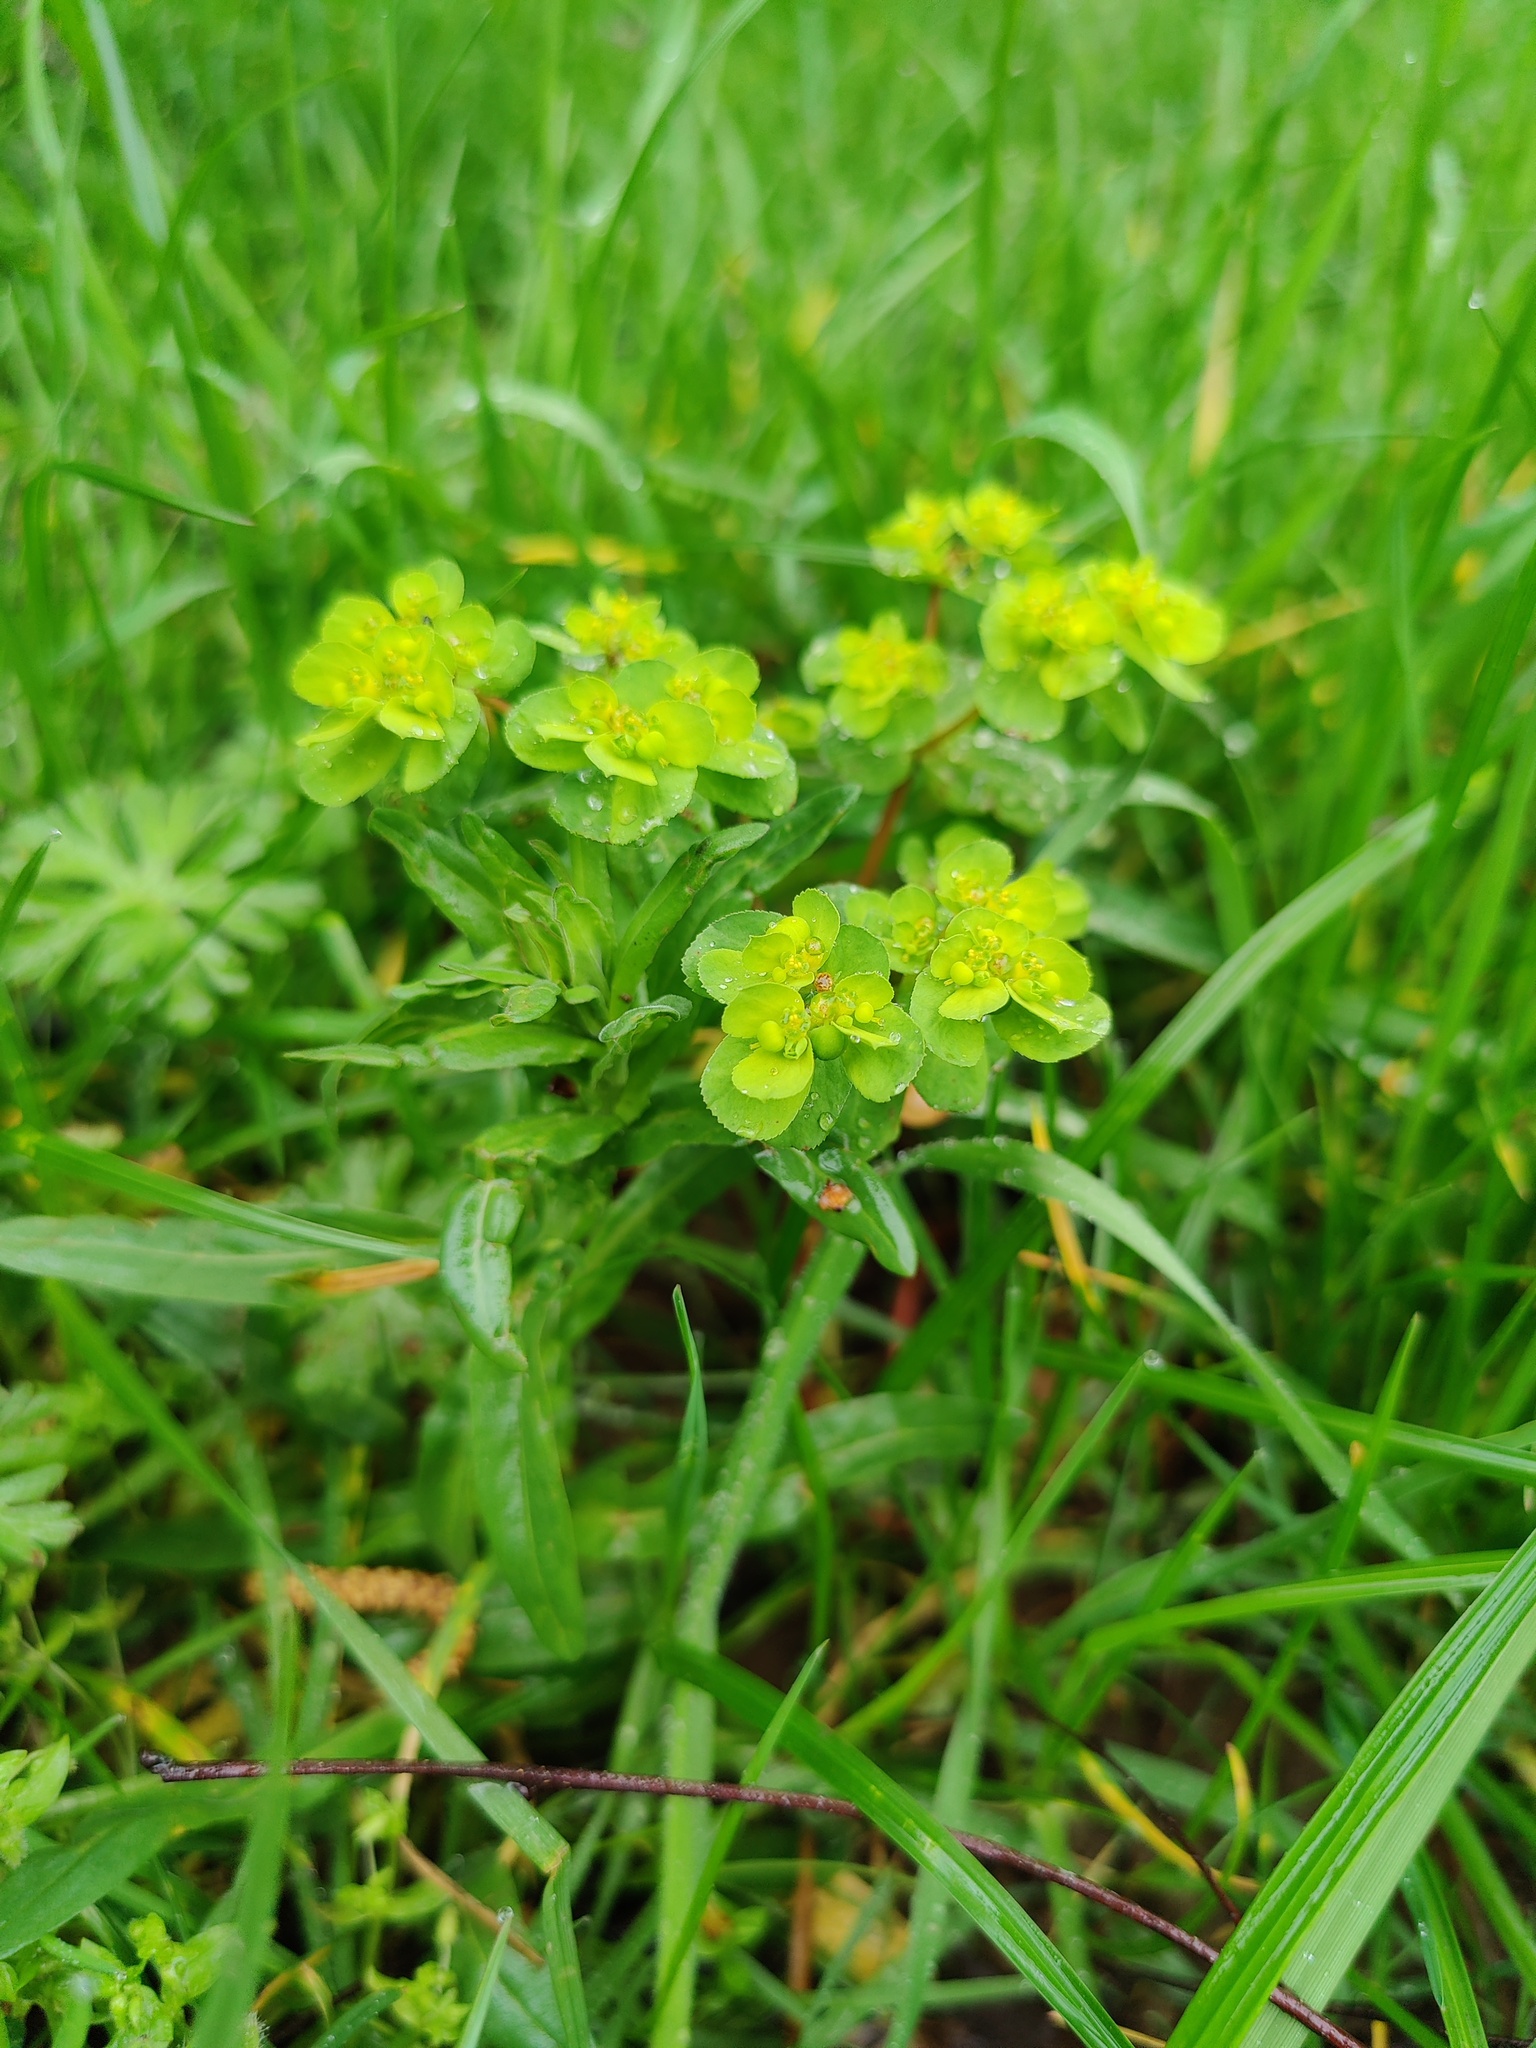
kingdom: Plantae
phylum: Tracheophyta
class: Magnoliopsida
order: Malpighiales
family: Euphorbiaceae
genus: Euphorbia
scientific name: Euphorbia helioscopia
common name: Sun spurge
